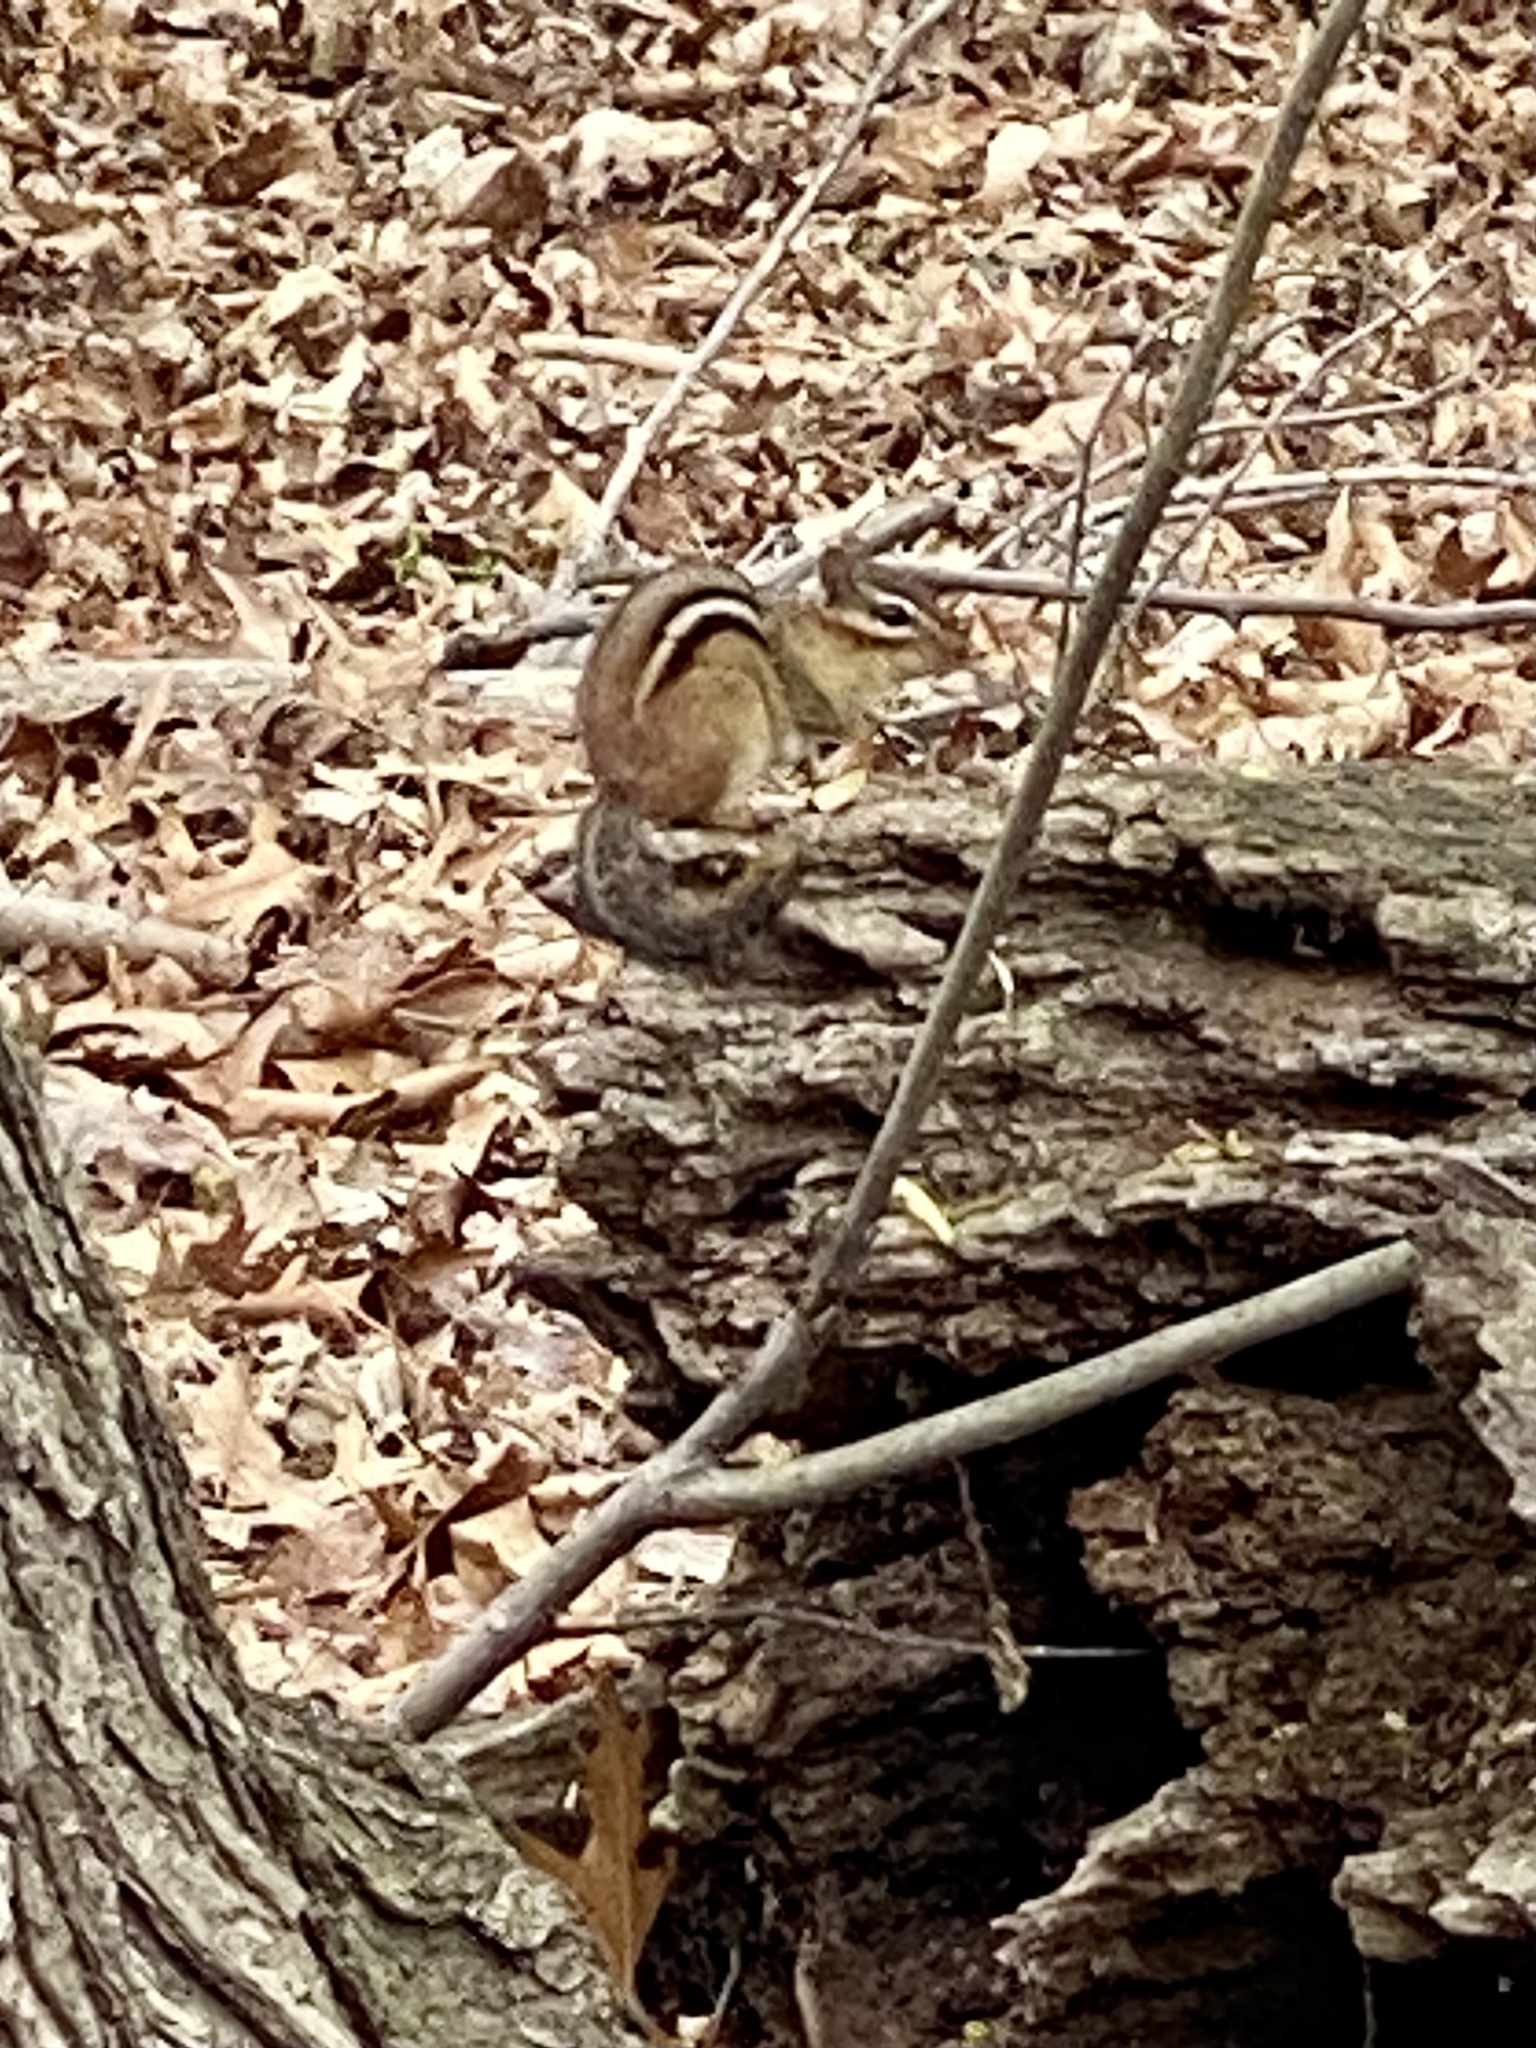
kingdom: Animalia
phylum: Chordata
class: Mammalia
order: Rodentia
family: Sciuridae
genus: Tamias
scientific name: Tamias striatus
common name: Eastern chipmunk
